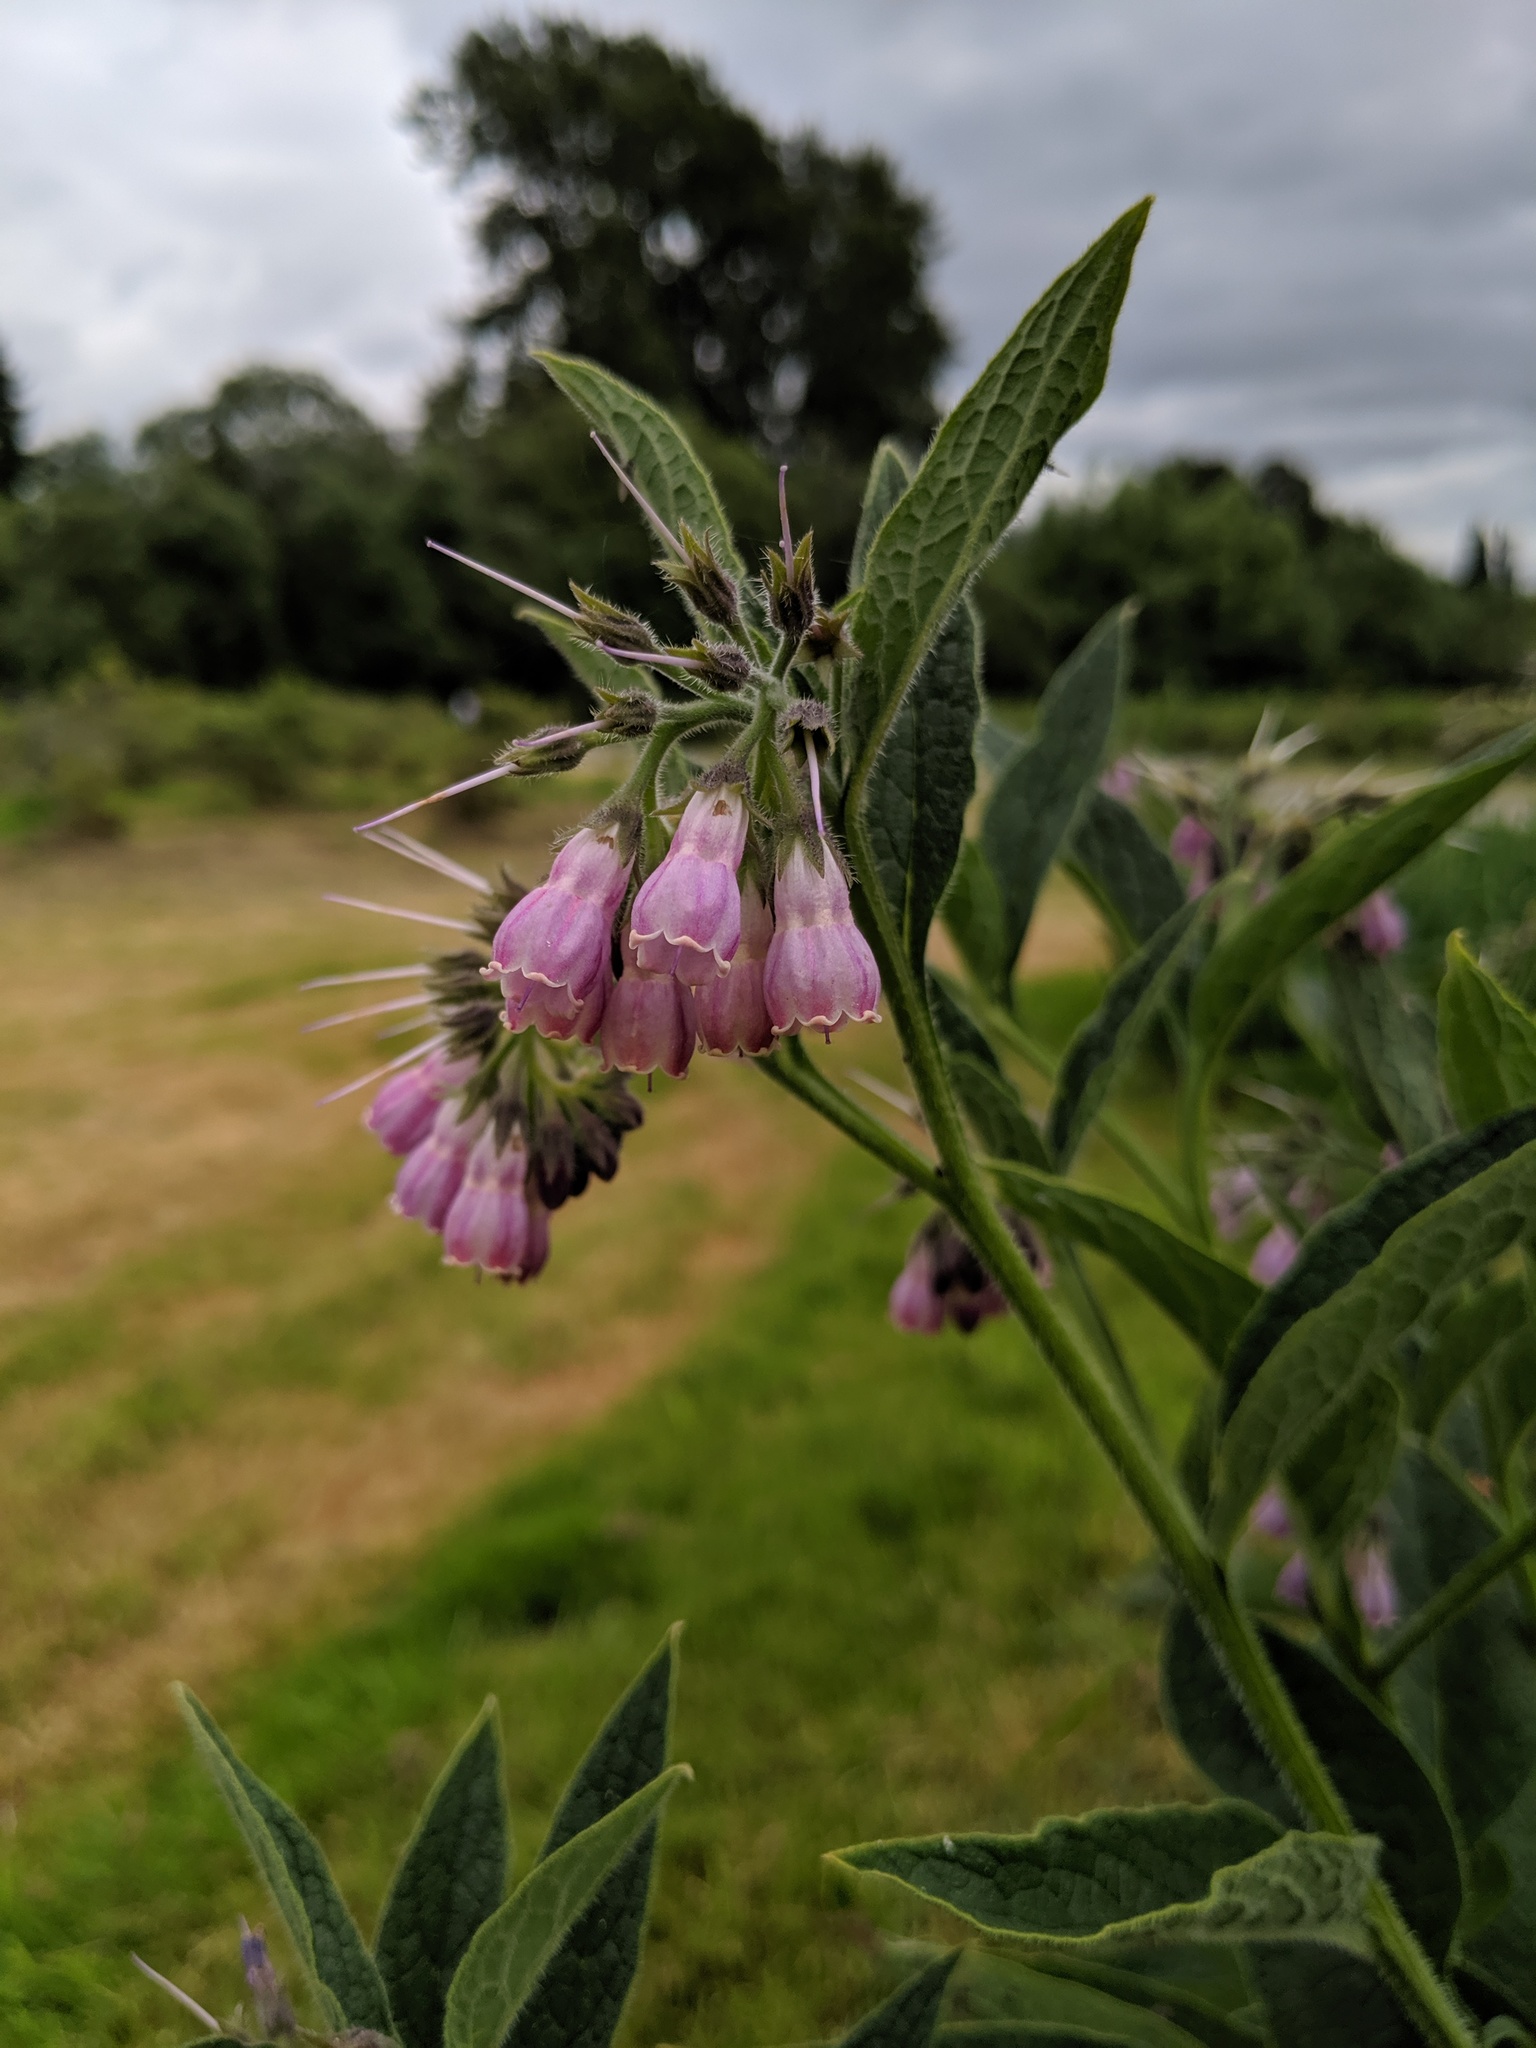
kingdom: Plantae
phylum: Tracheophyta
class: Magnoliopsida
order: Boraginales
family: Boraginaceae
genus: Symphytum
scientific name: Symphytum officinale
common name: Common comfrey
